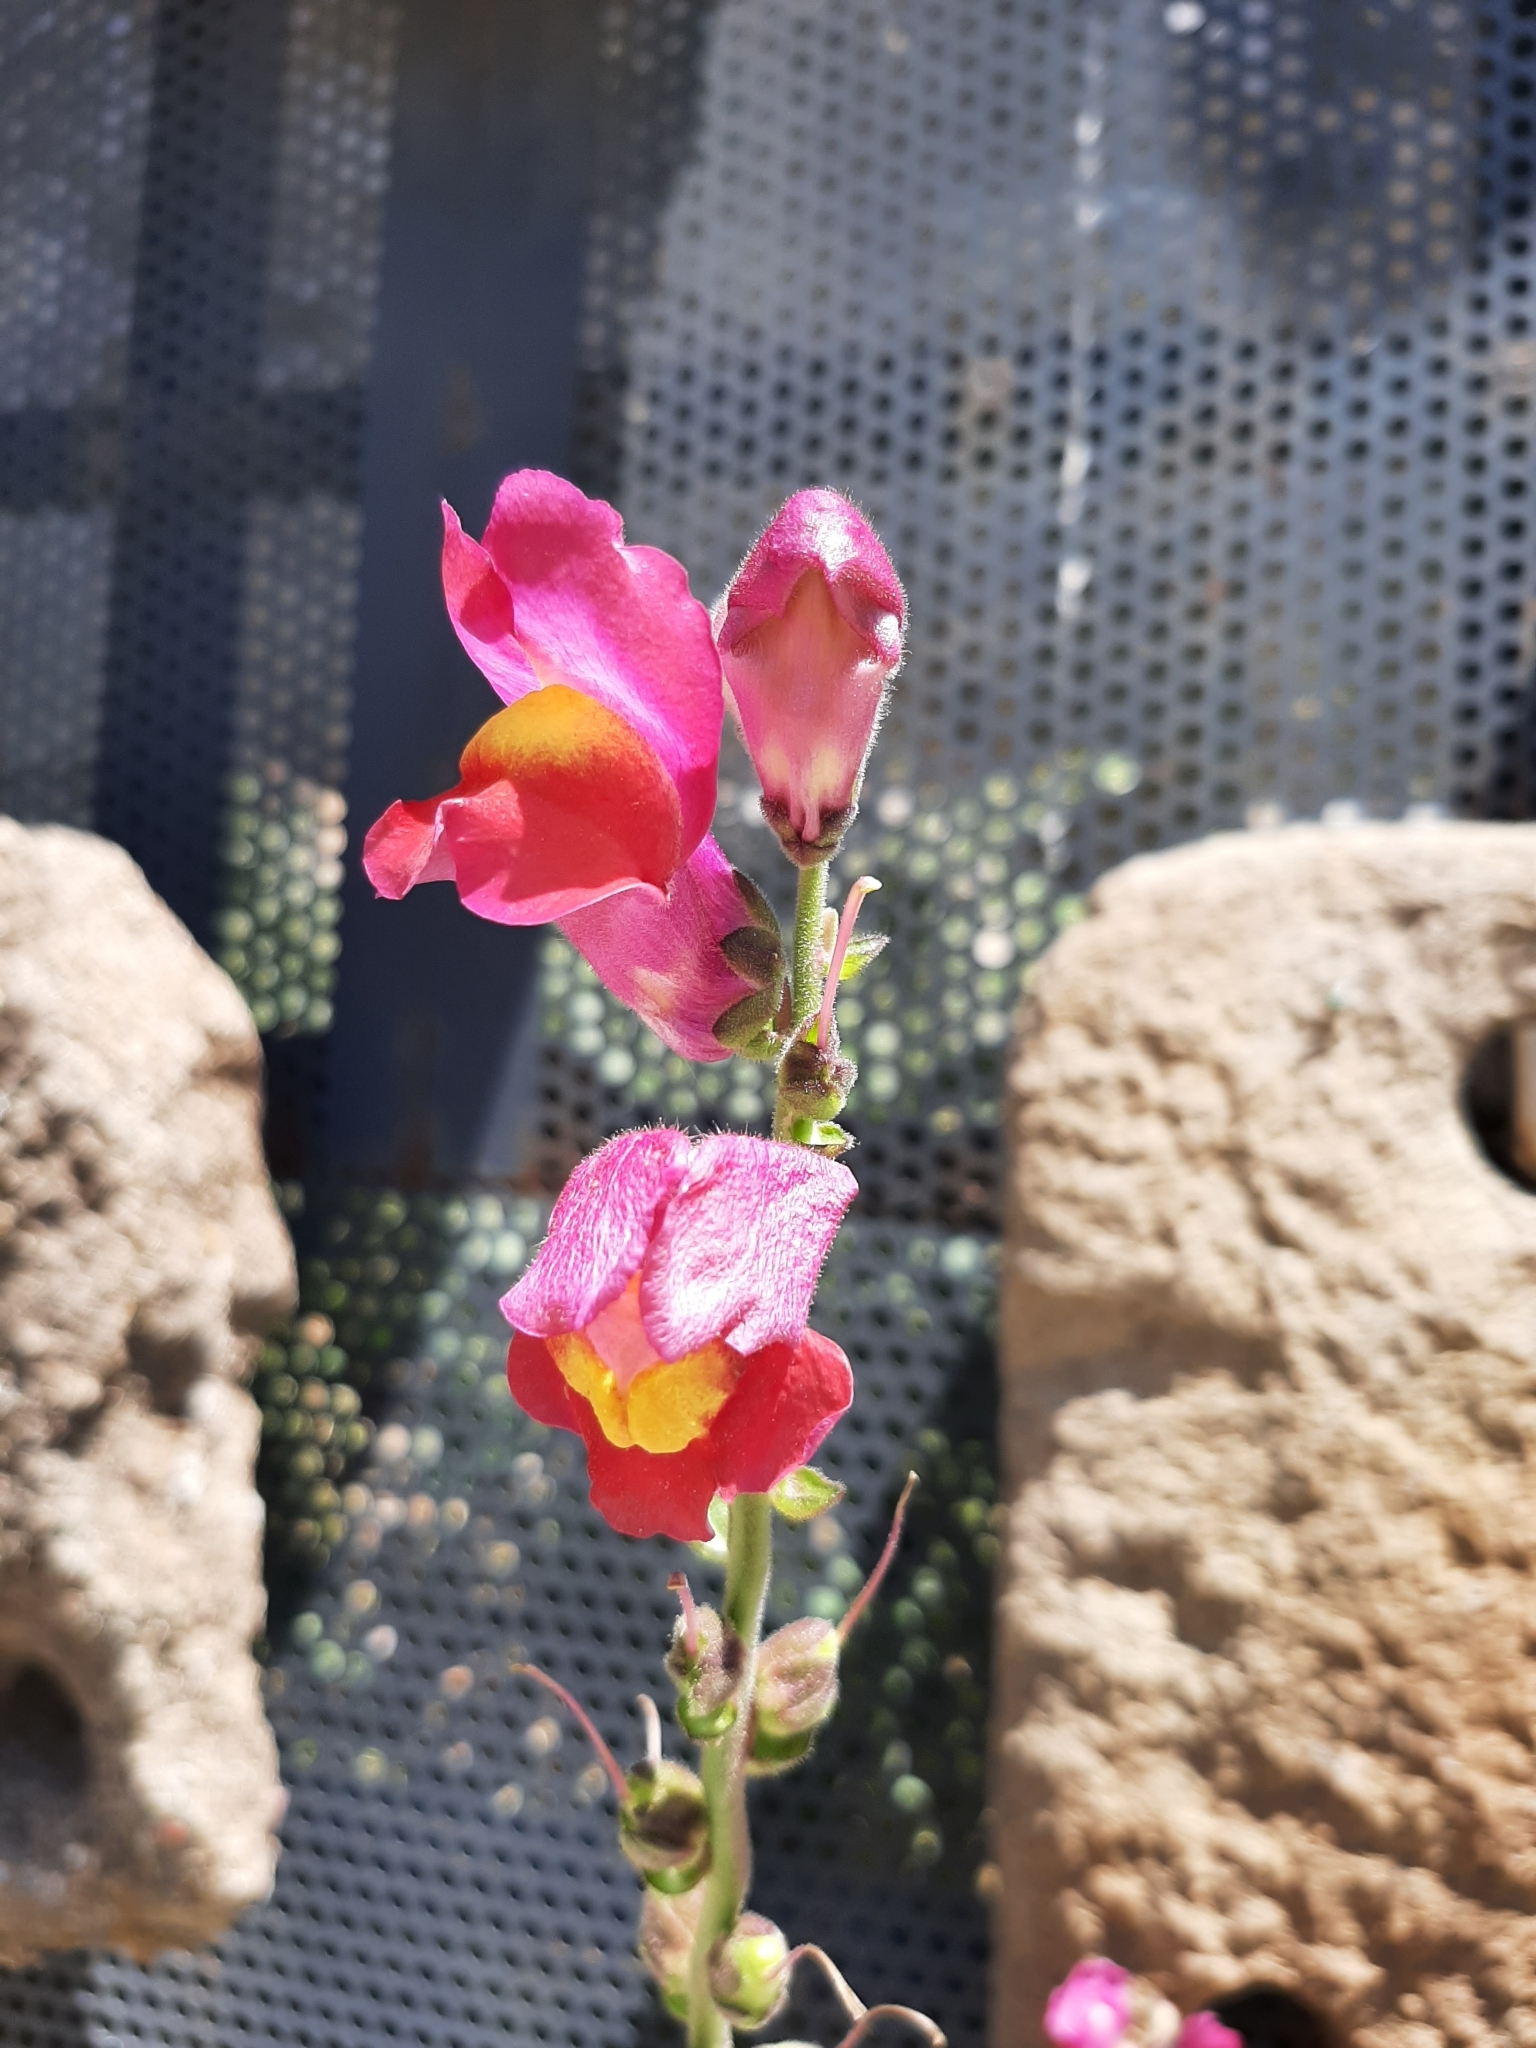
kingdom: Plantae
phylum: Tracheophyta
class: Magnoliopsida
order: Lamiales
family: Plantaginaceae
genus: Antirrhinum
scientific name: Antirrhinum majus
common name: Snapdragon
